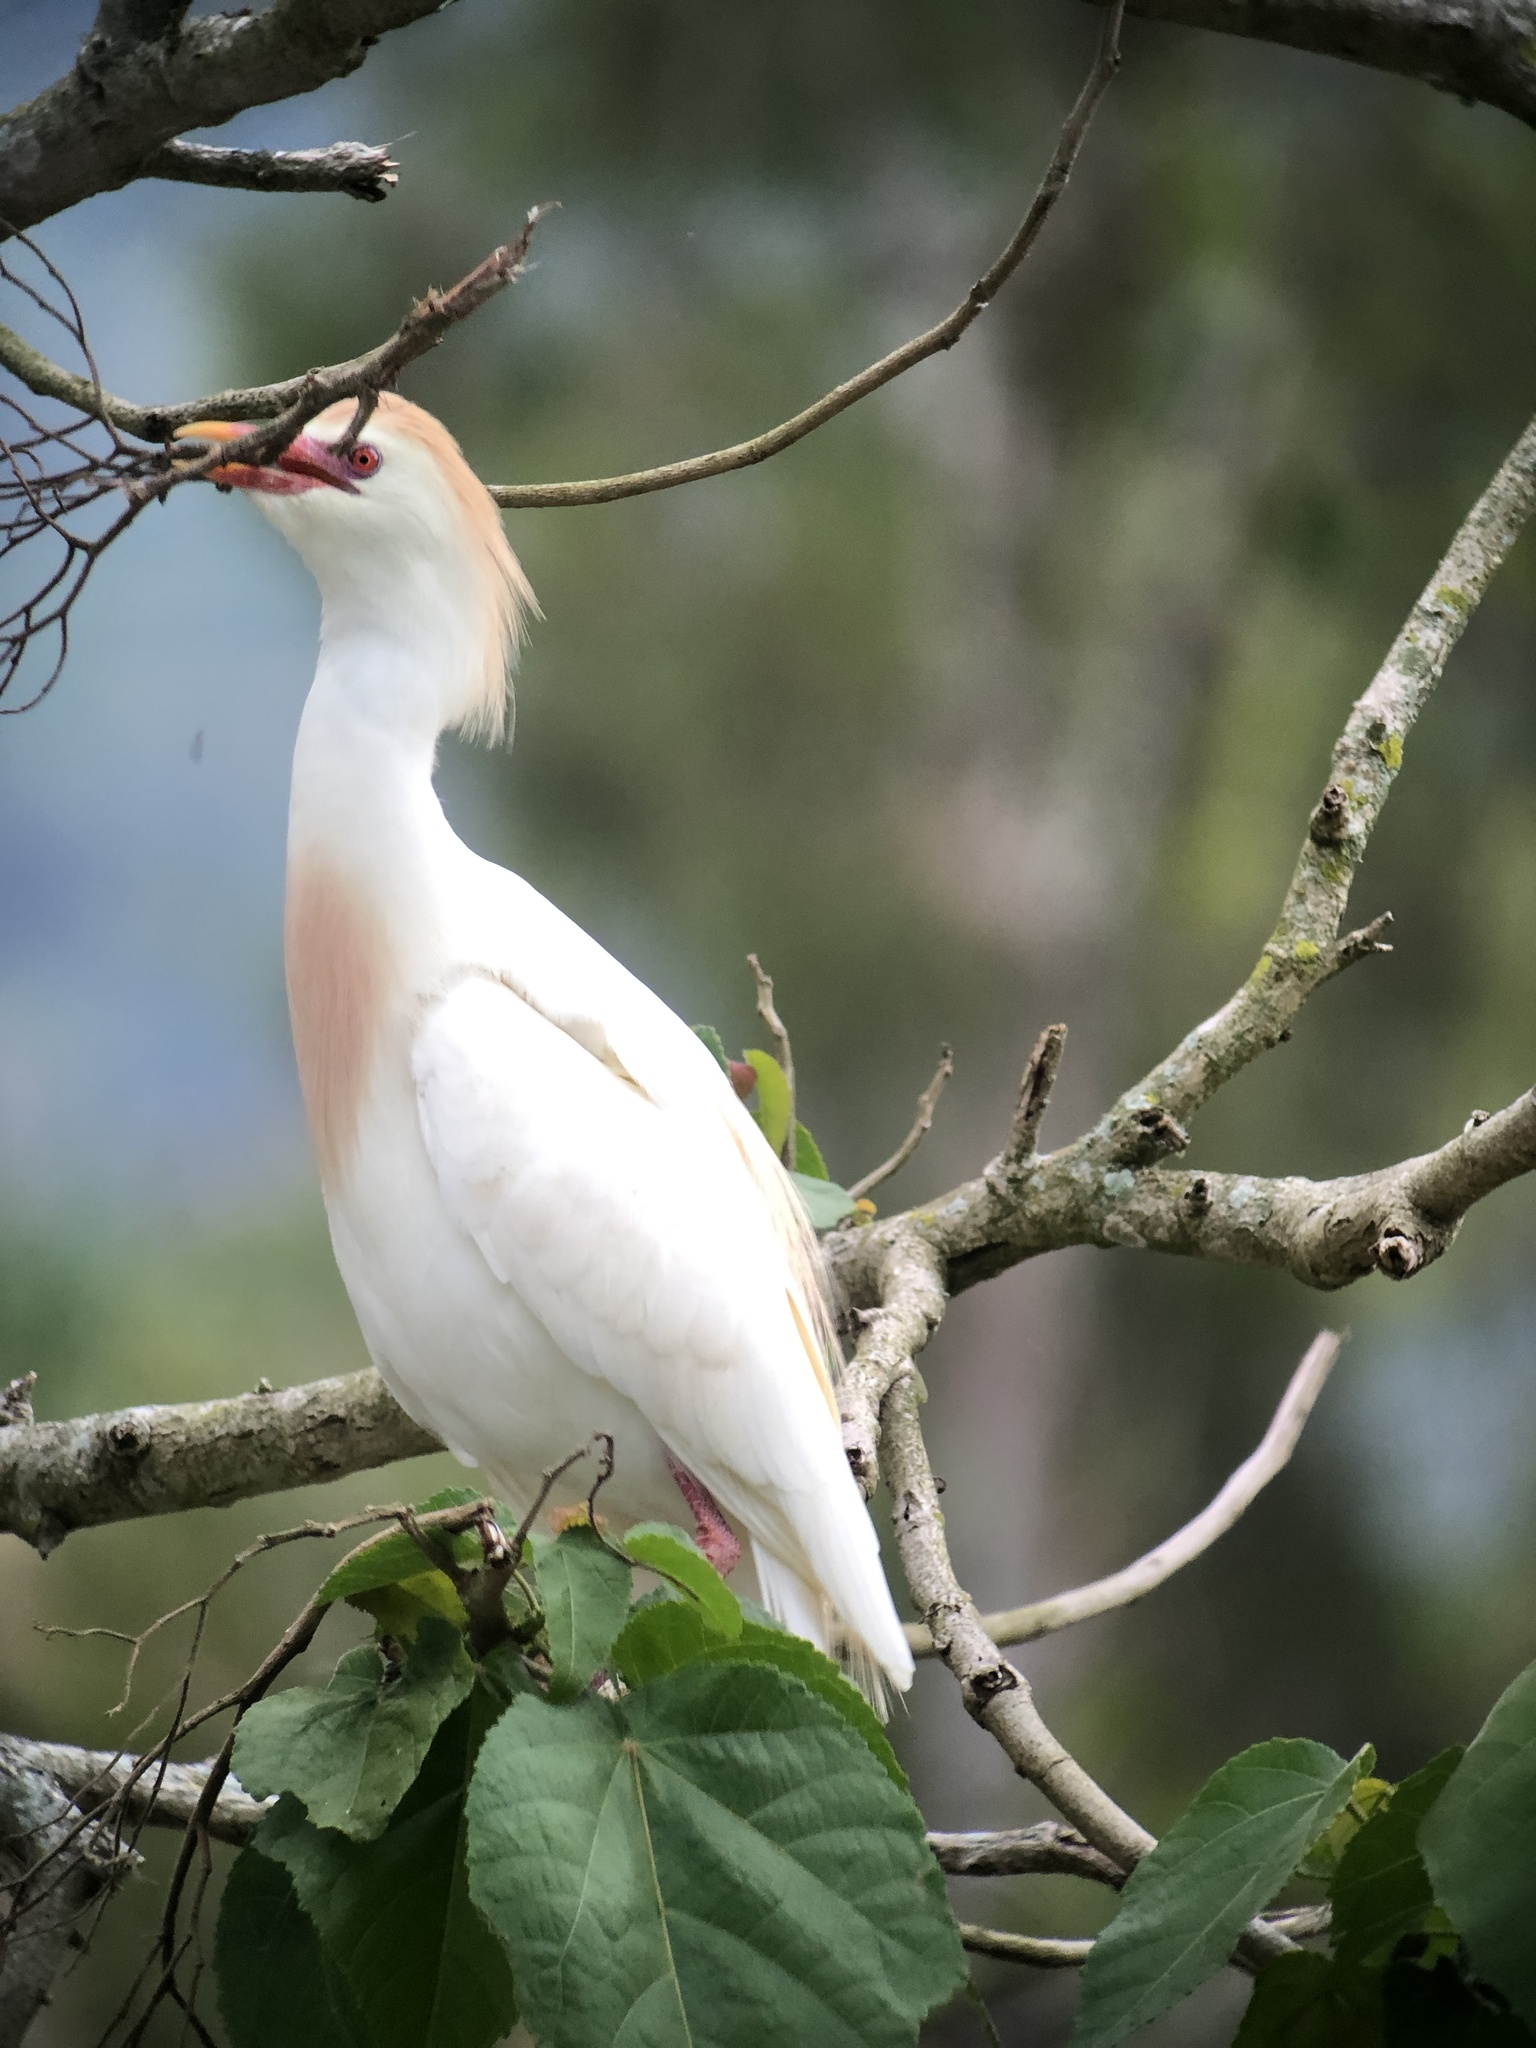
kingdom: Animalia
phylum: Chordata
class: Aves
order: Pelecaniformes
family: Ardeidae
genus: Bubulcus
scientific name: Bubulcus ibis
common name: Cattle egret
